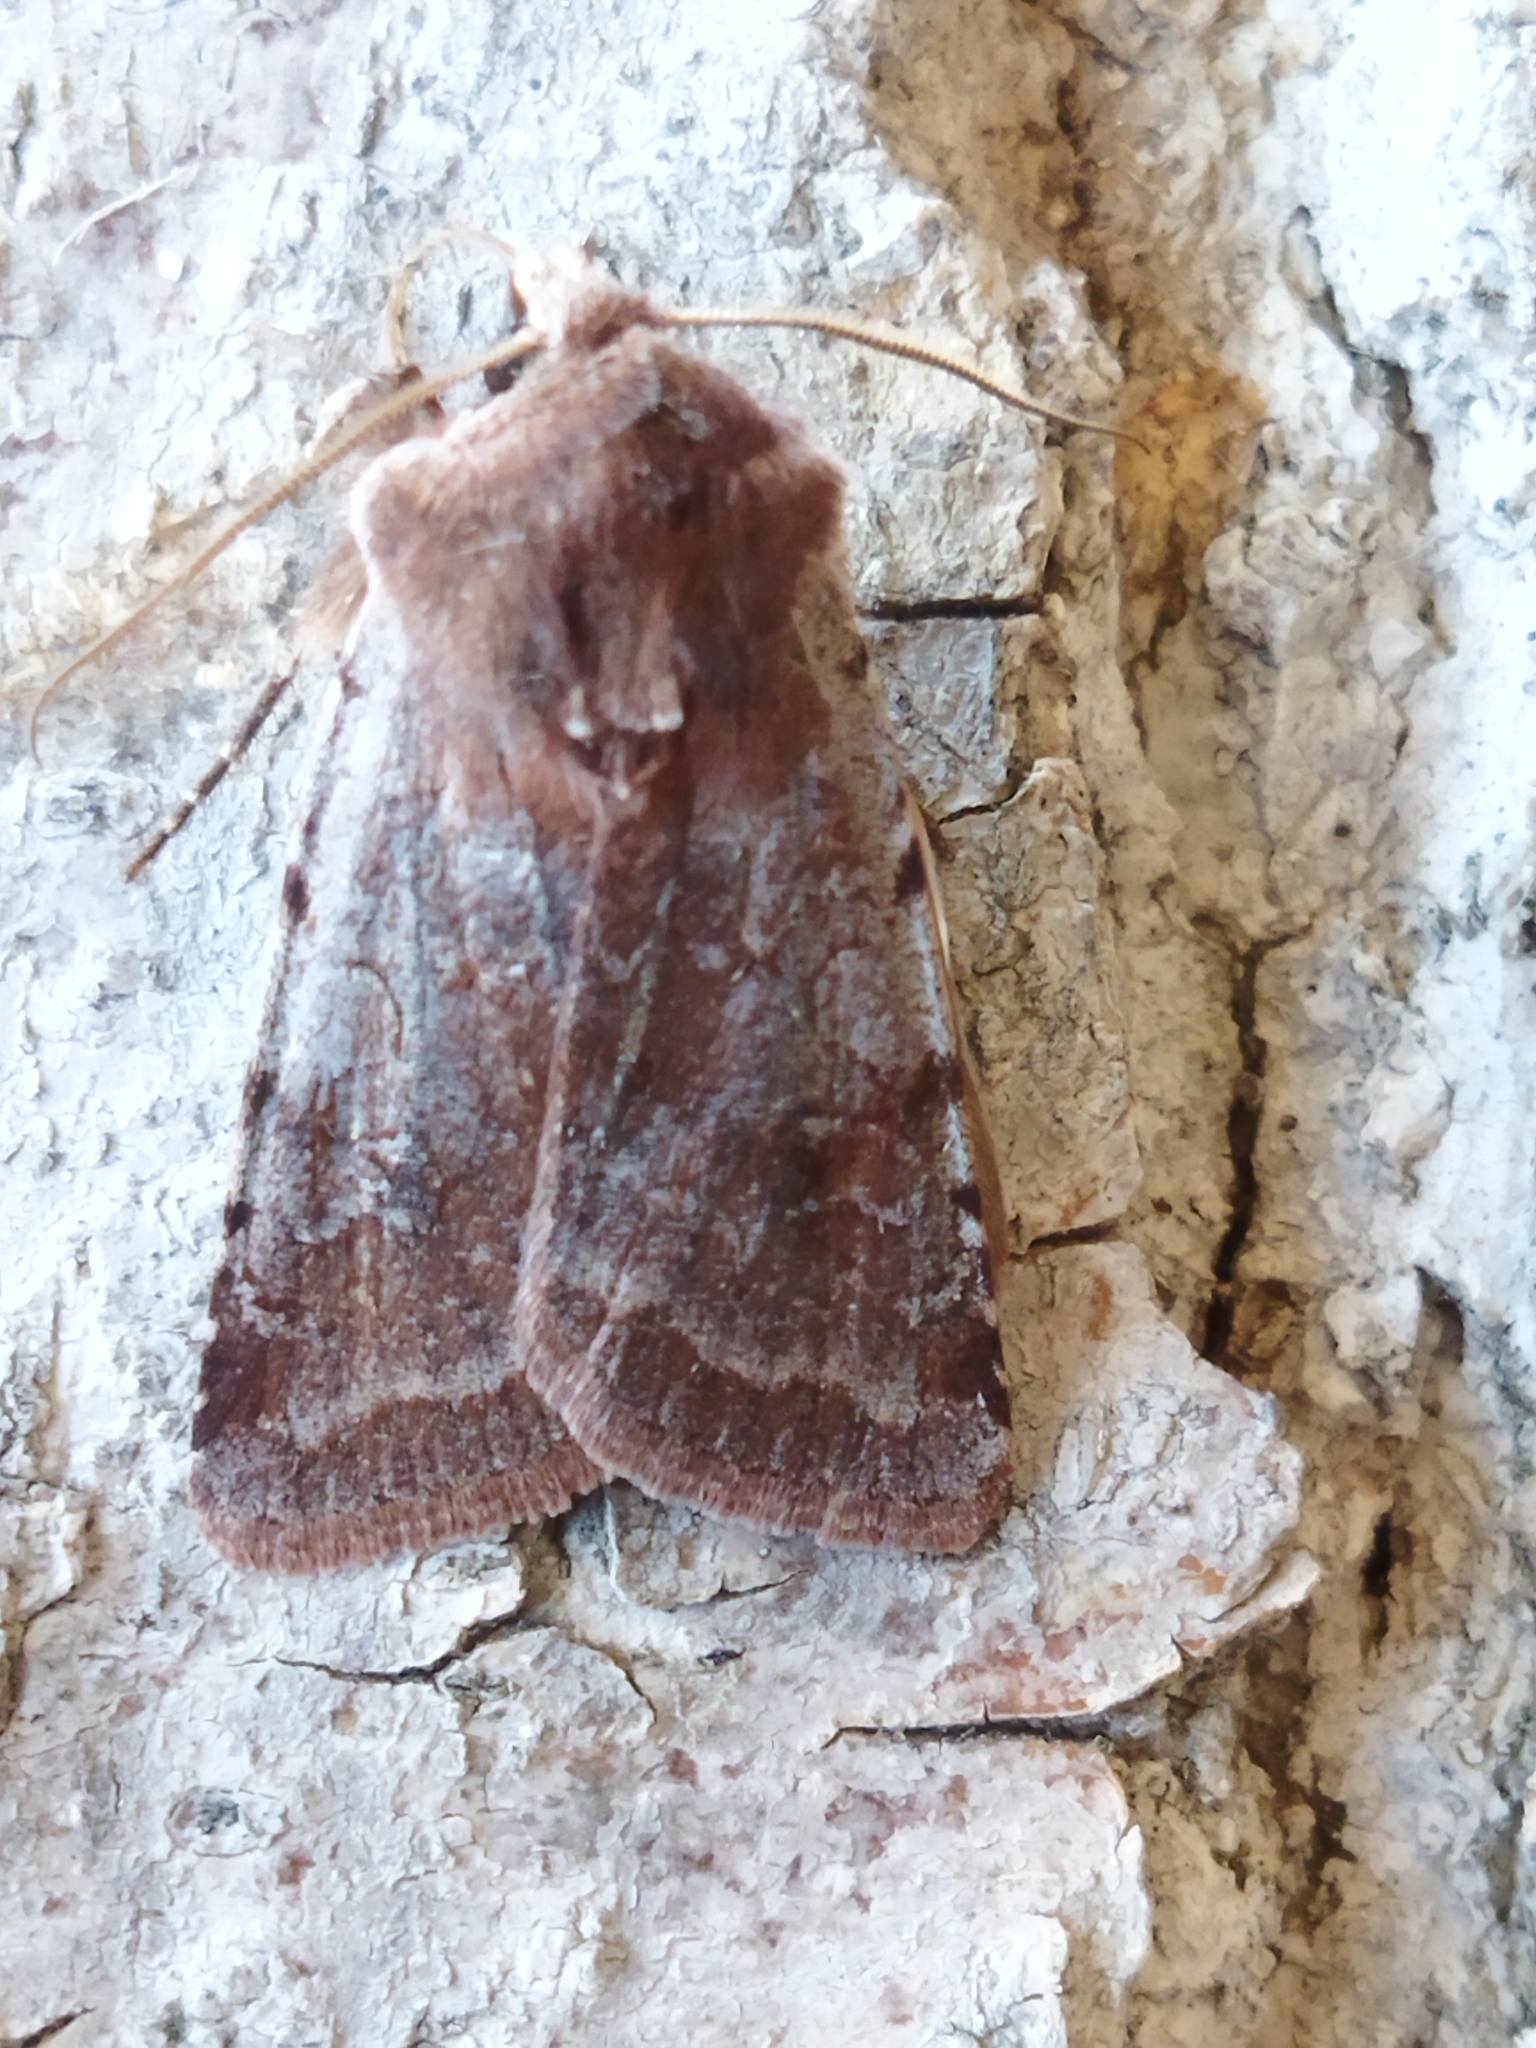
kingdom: Animalia
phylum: Arthropoda
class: Insecta
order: Lepidoptera
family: Noctuidae
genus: Cerastis
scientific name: Cerastis rubricosa
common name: Red chestnut
